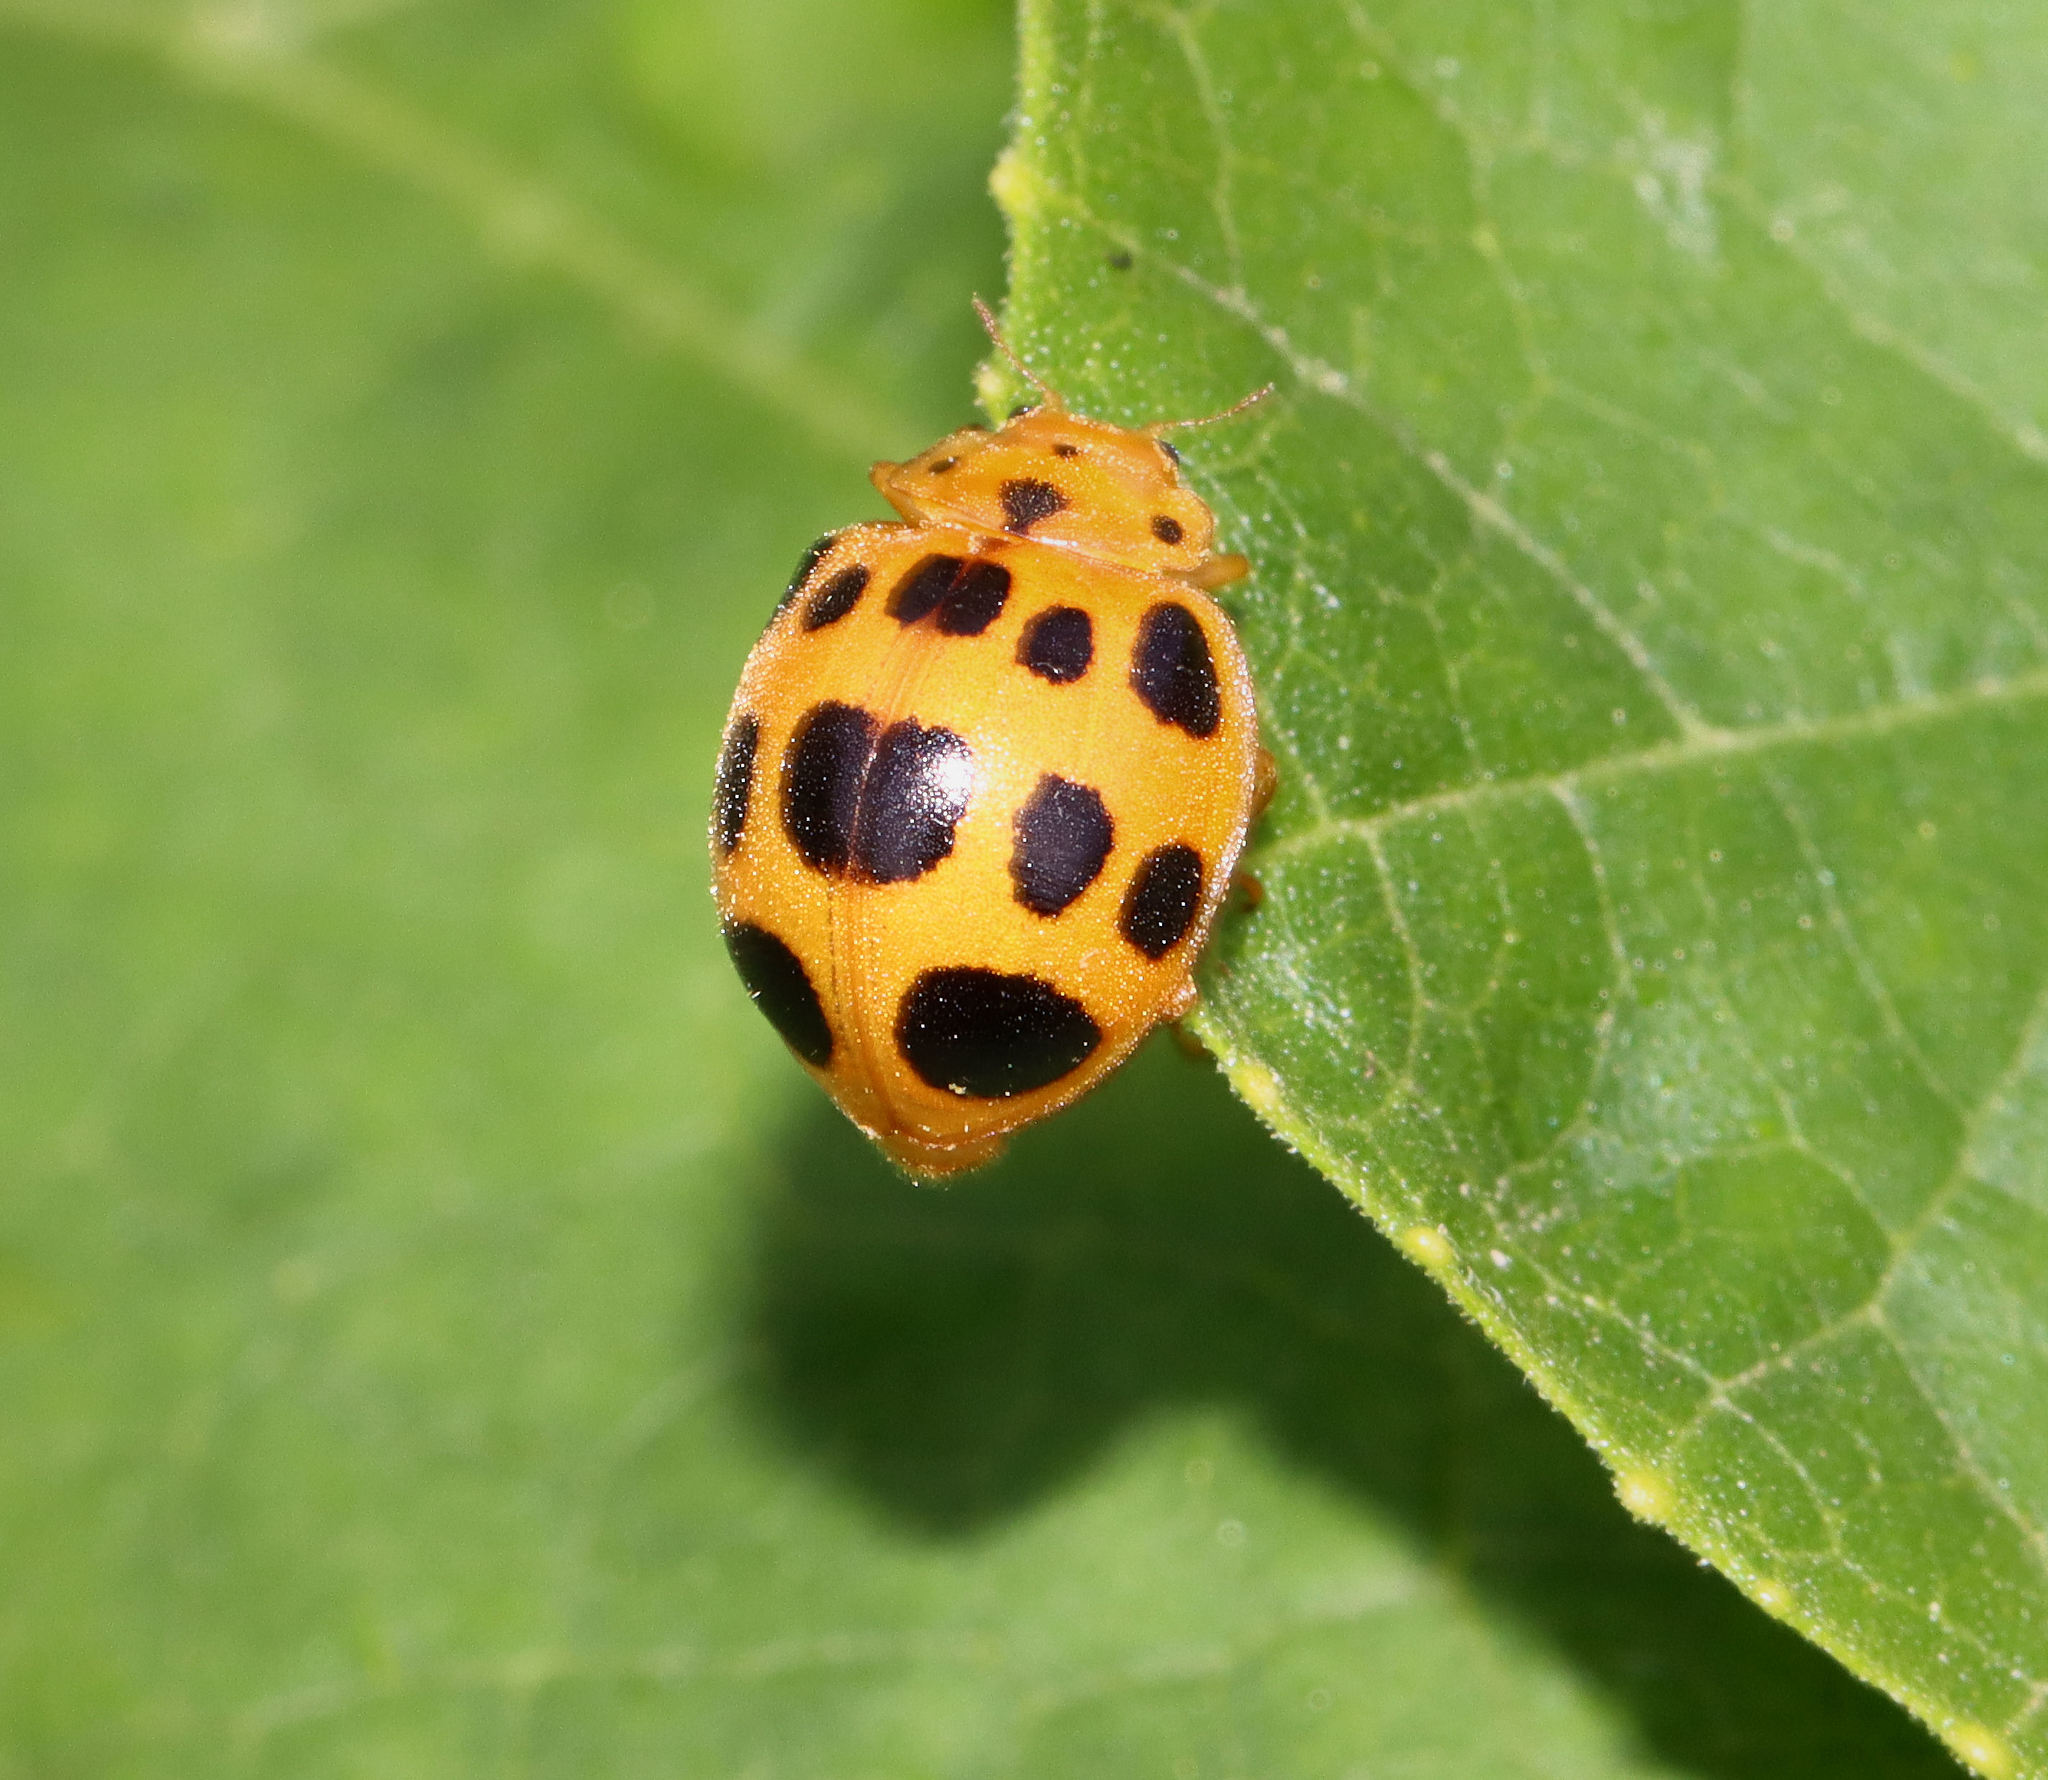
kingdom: Animalia
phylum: Arthropoda
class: Insecta
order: Coleoptera
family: Coccinellidae
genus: Epilachna
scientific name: Epilachna borealis
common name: Squash beetle
